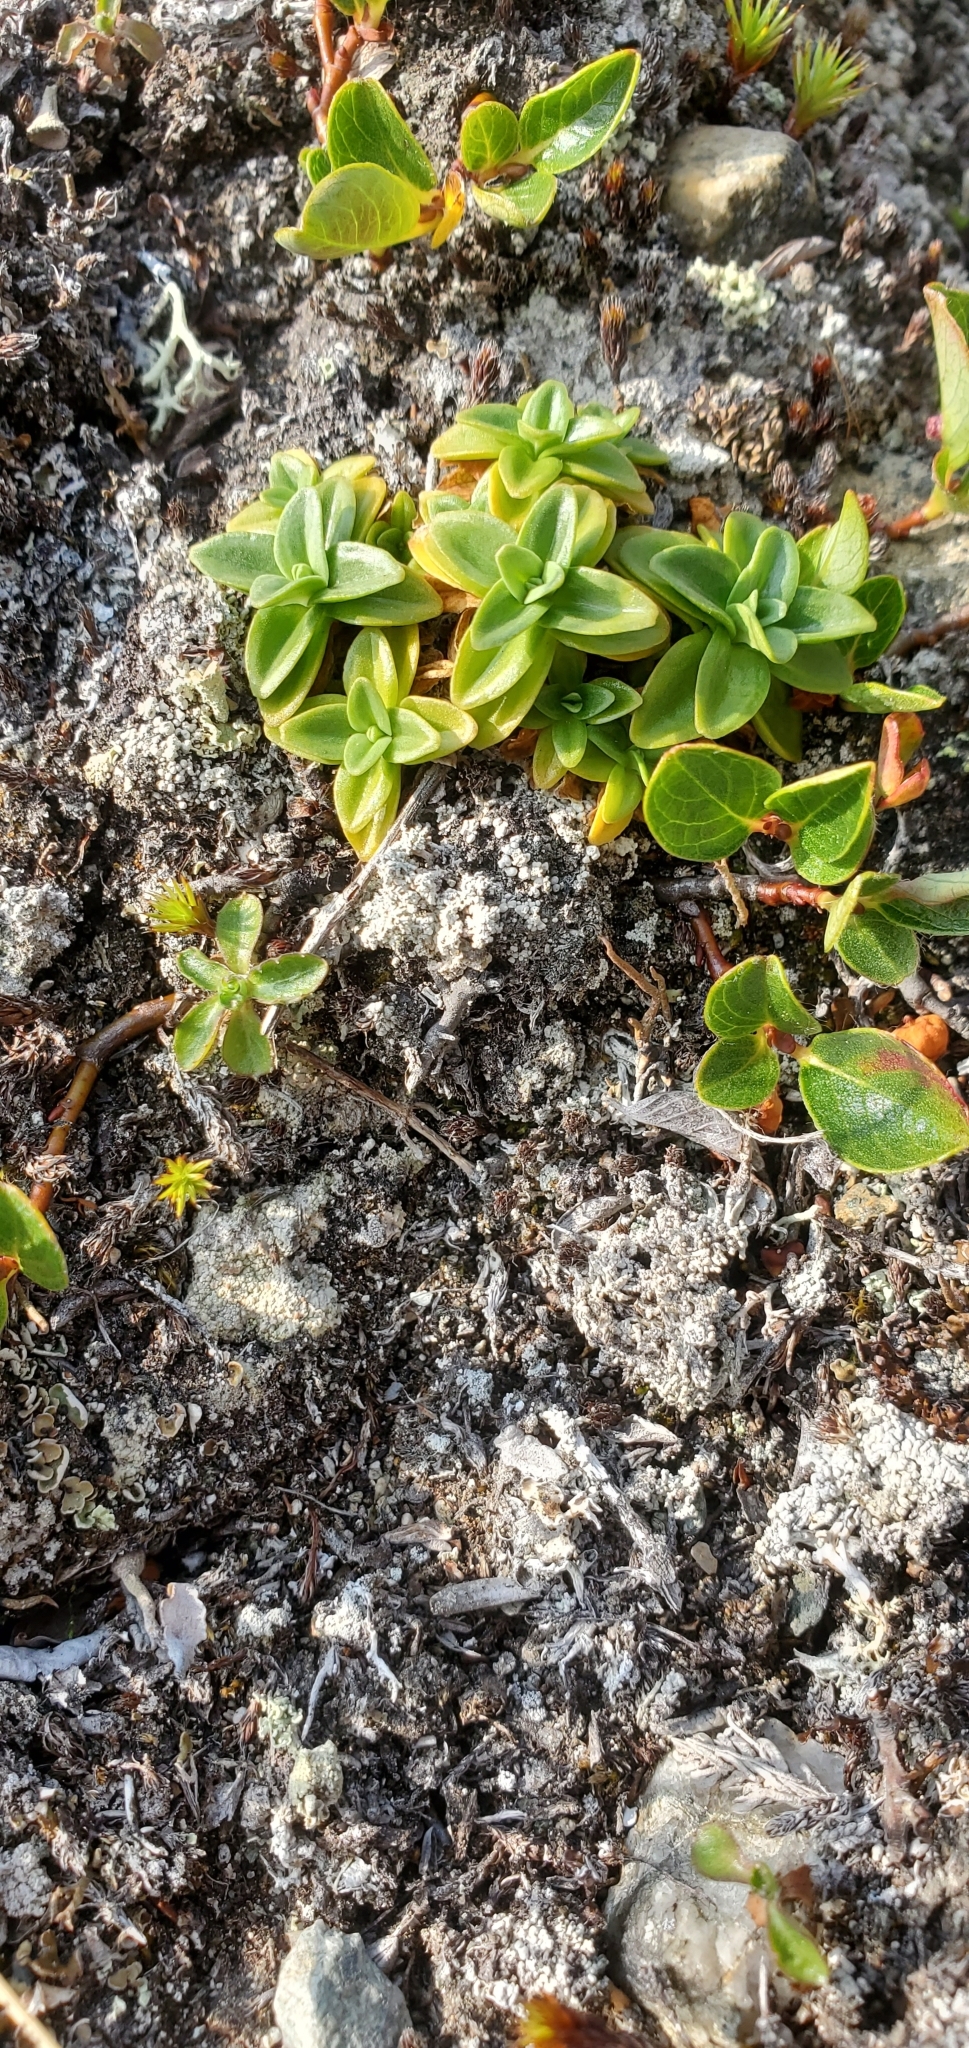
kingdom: Plantae
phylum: Tracheophyta
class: Magnoliopsida
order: Gentianales
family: Gentianaceae
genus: Gentiana
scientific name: Gentiana glauca
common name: Alpine gentian
